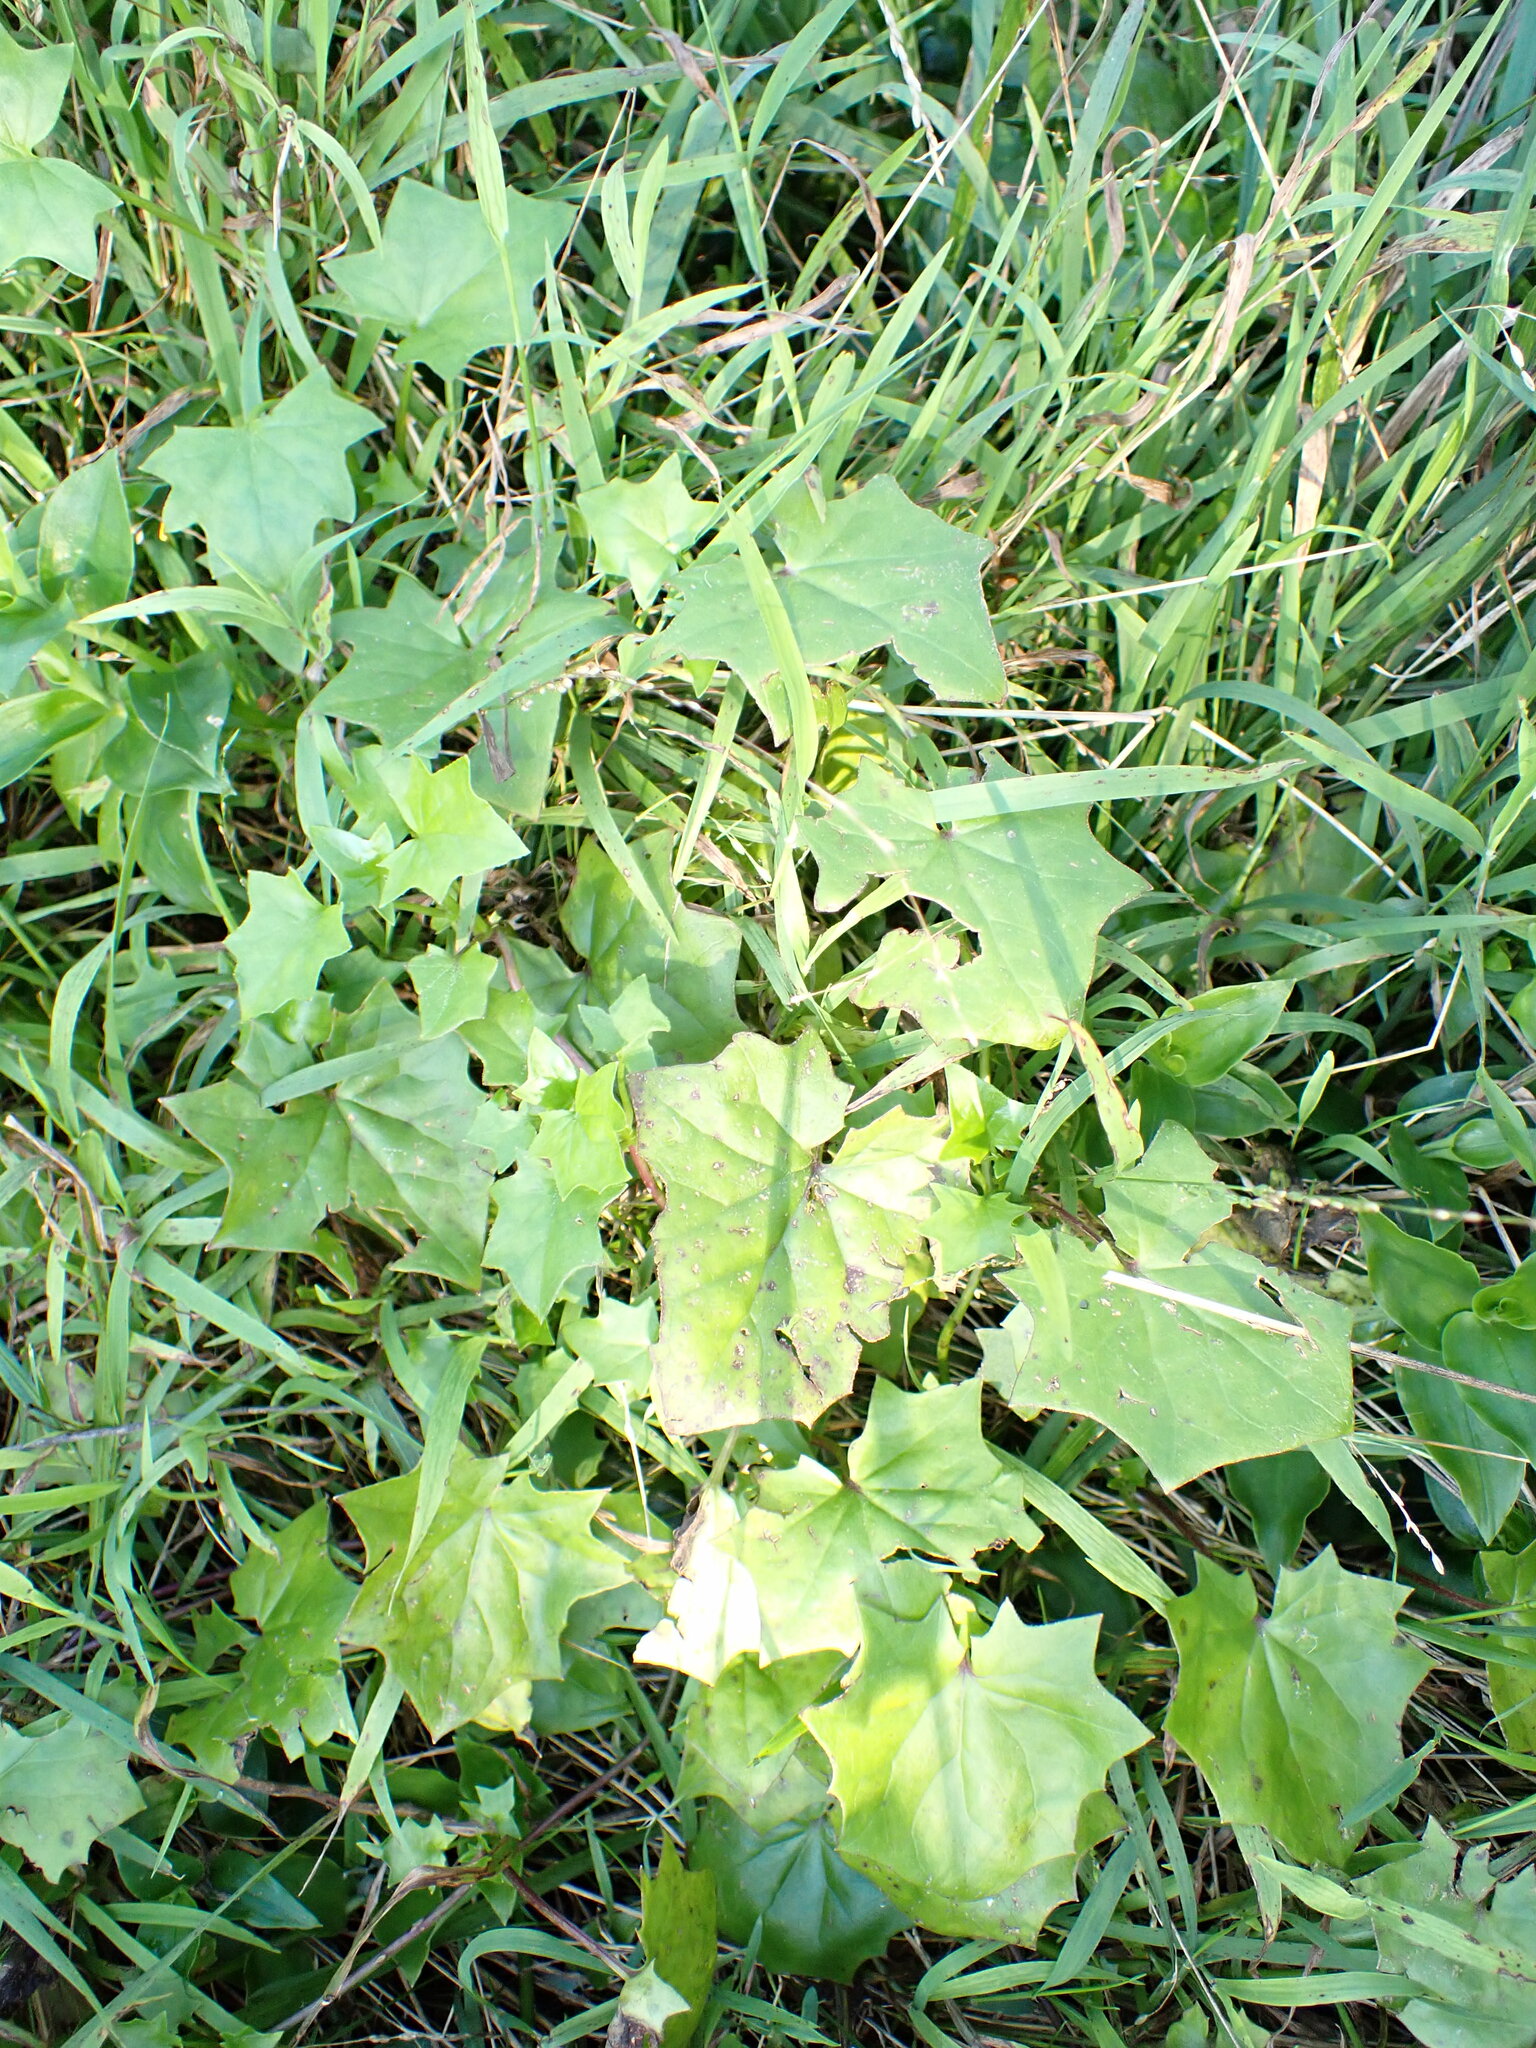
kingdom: Plantae
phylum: Tracheophyta
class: Magnoliopsida
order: Asterales
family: Asteraceae
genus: Delairea
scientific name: Delairea odorata
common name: Cape-ivy
